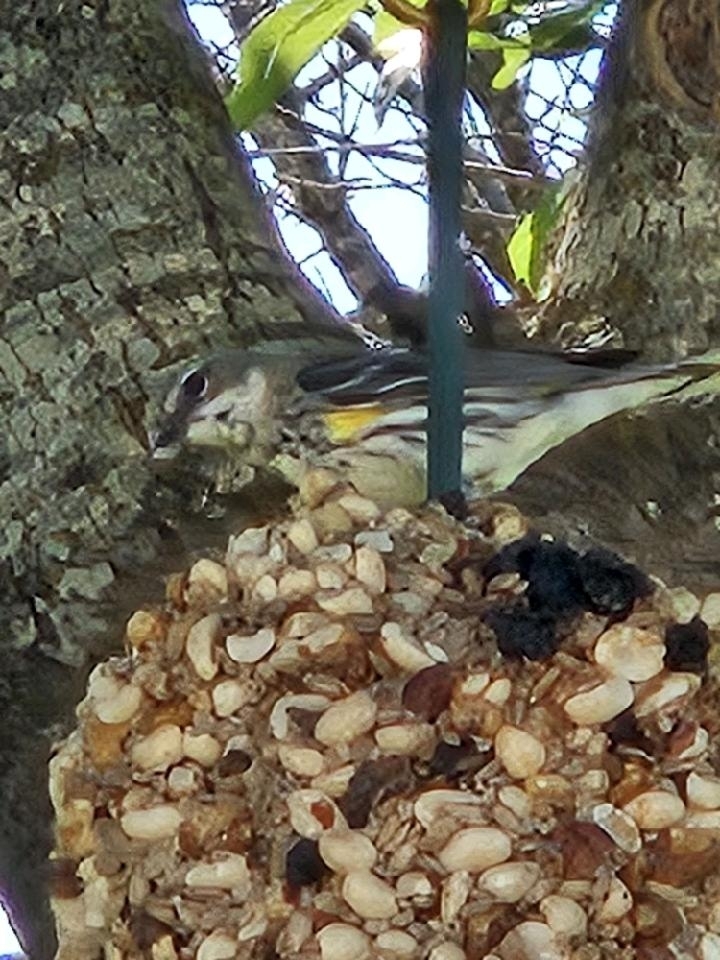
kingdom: Animalia
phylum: Chordata
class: Aves
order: Passeriformes
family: Parulidae
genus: Setophaga
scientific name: Setophaga coronata
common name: Myrtle warbler
